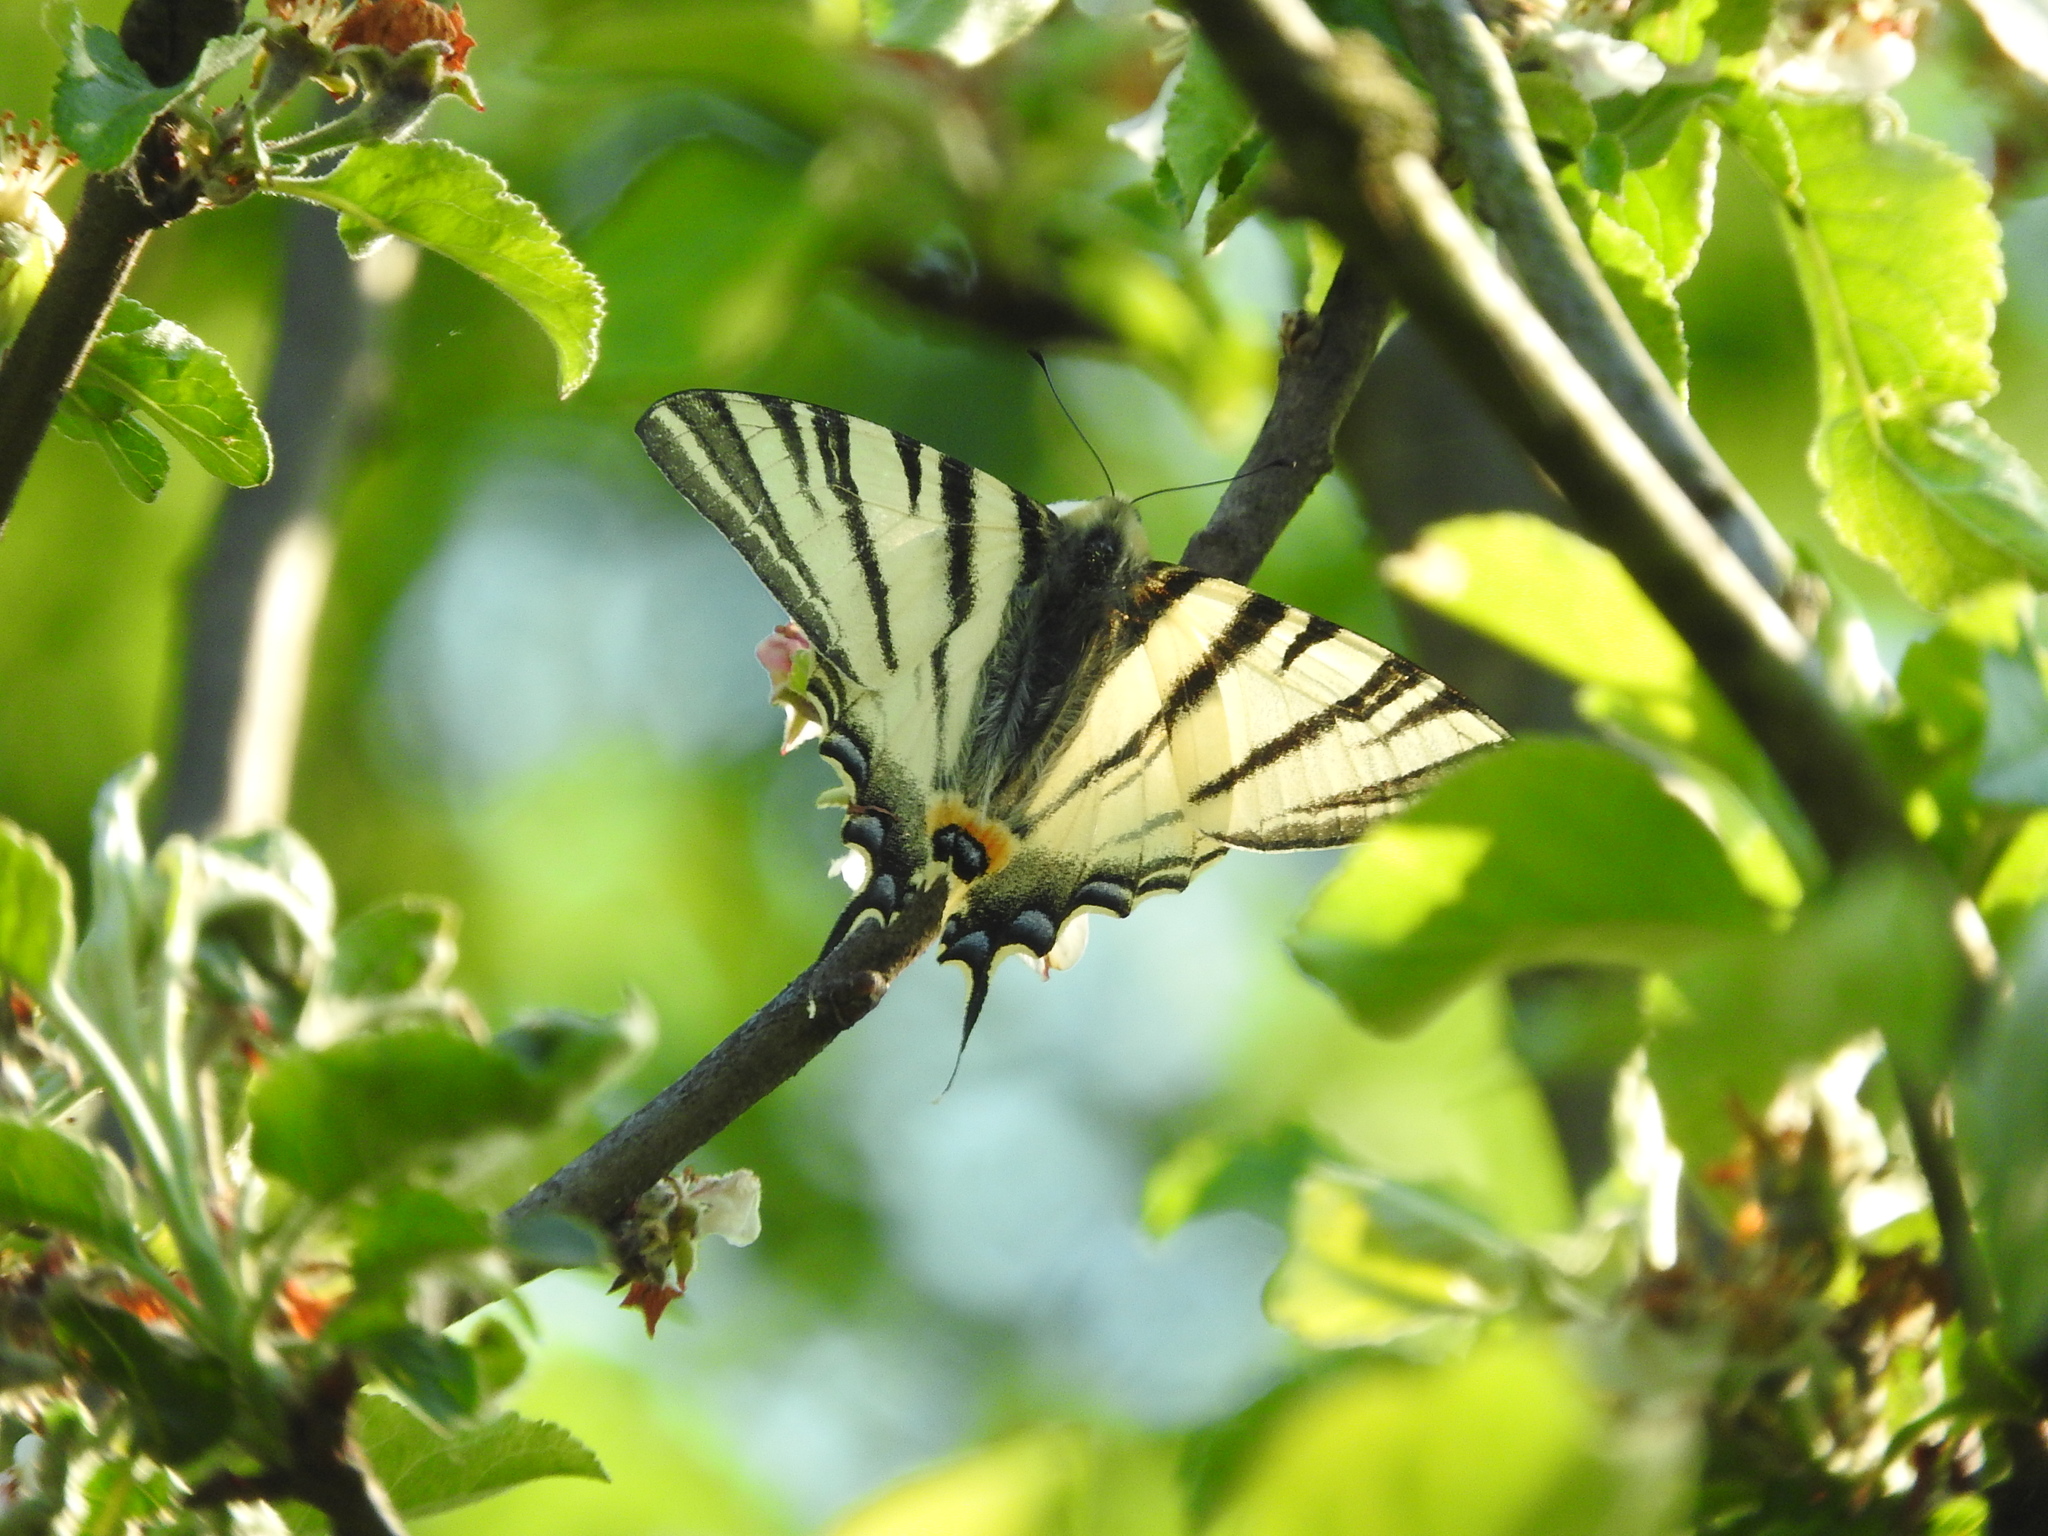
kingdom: Animalia
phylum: Arthropoda
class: Insecta
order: Lepidoptera
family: Papilionidae
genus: Iphiclides
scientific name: Iphiclides podalirius
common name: Scarce swallowtail
